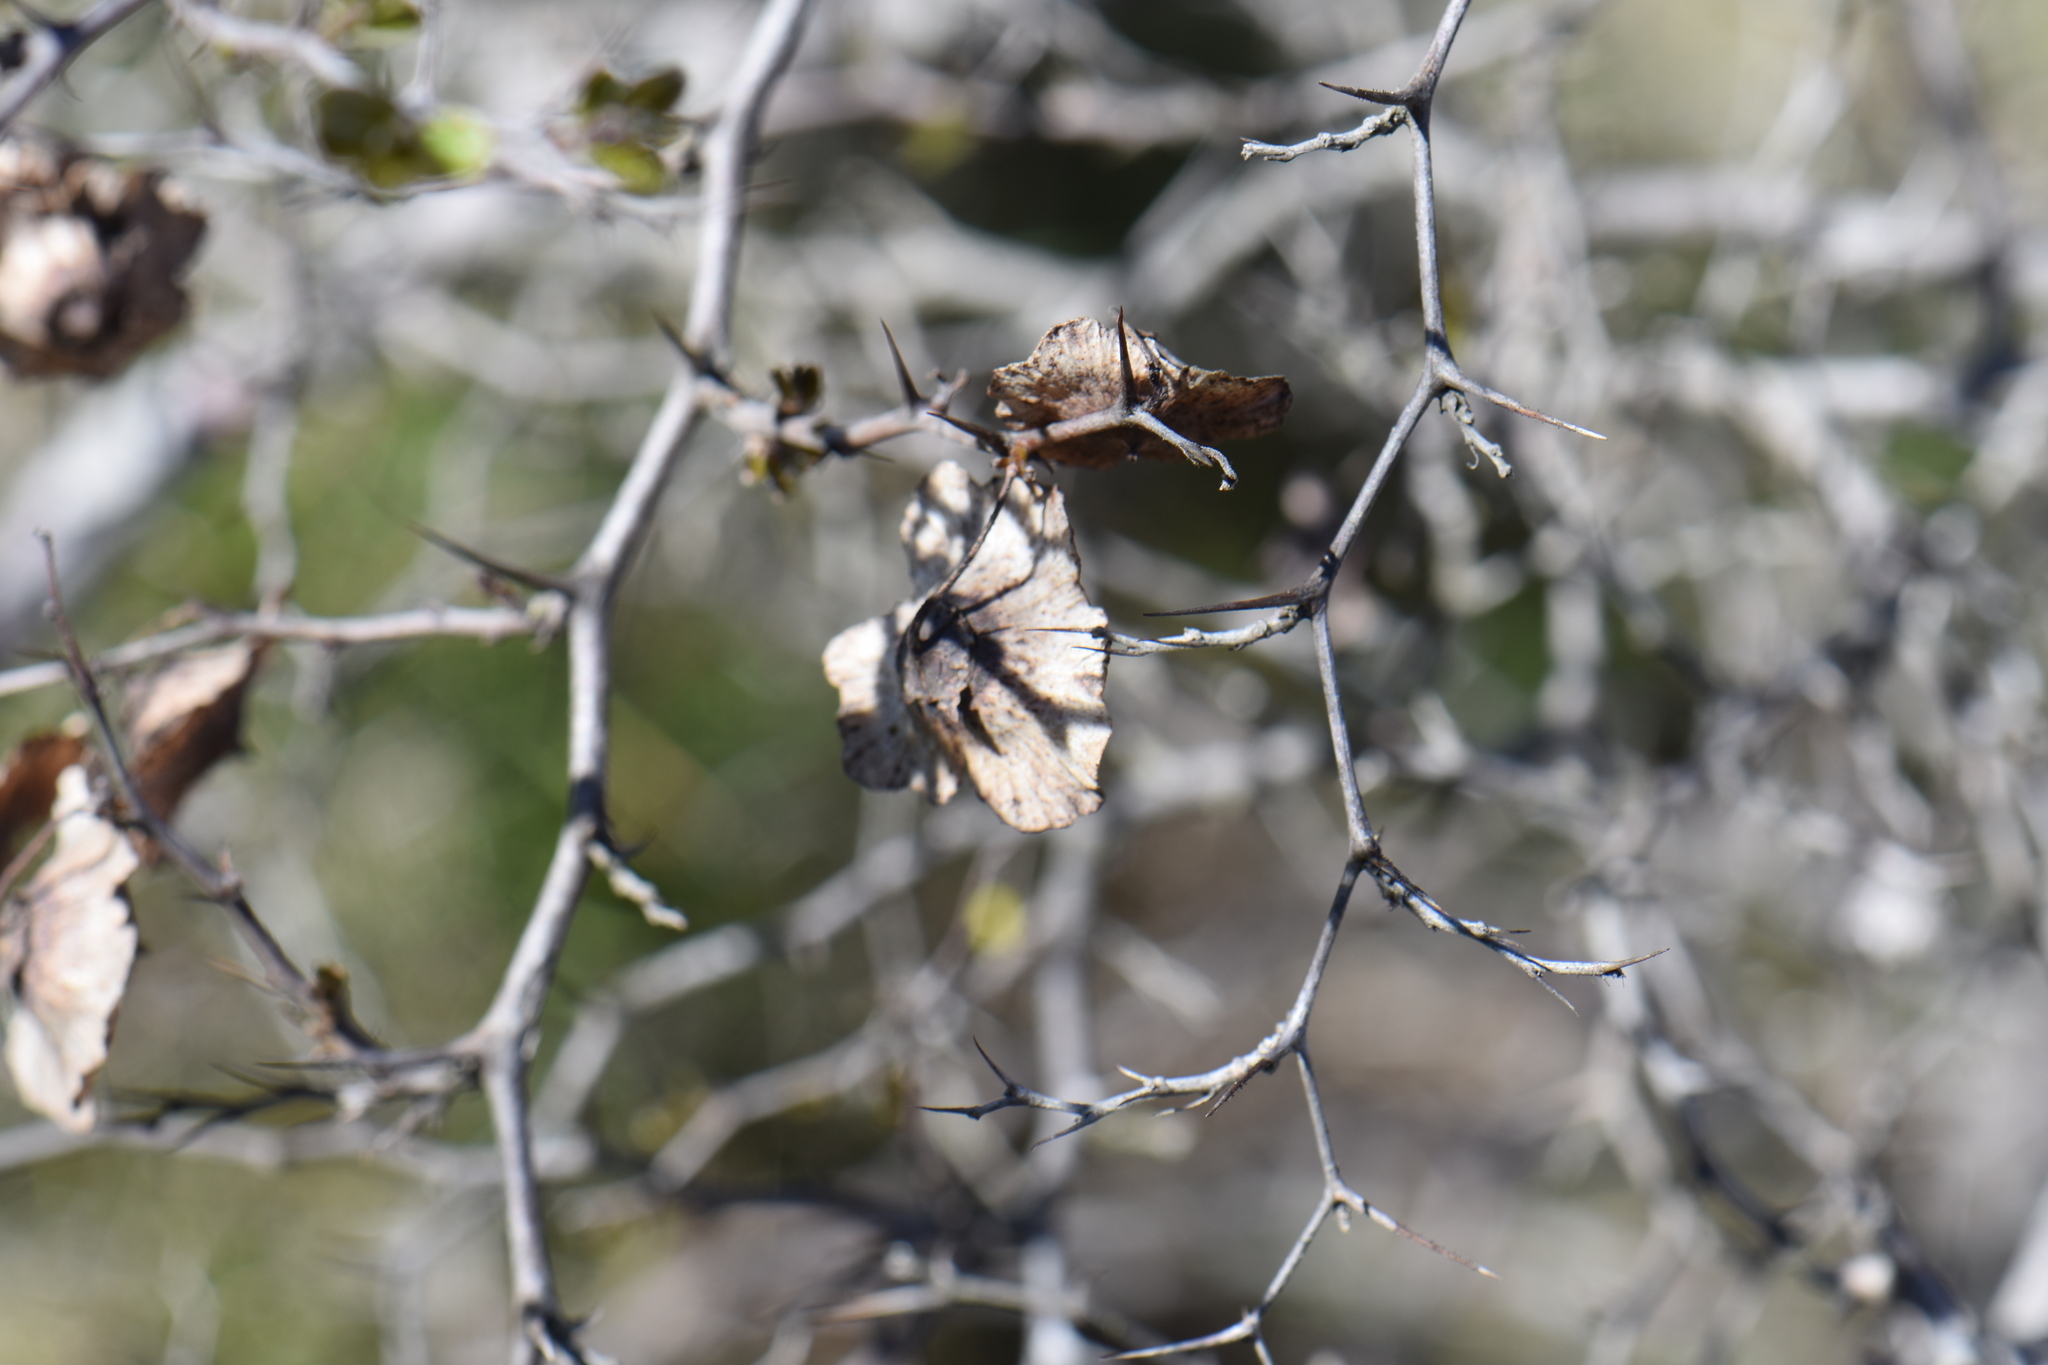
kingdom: Plantae
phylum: Tracheophyta
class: Magnoliopsida
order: Rosales
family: Rhamnaceae
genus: Paliurus
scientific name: Paliurus spina-christi
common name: Jeruselem thorn
